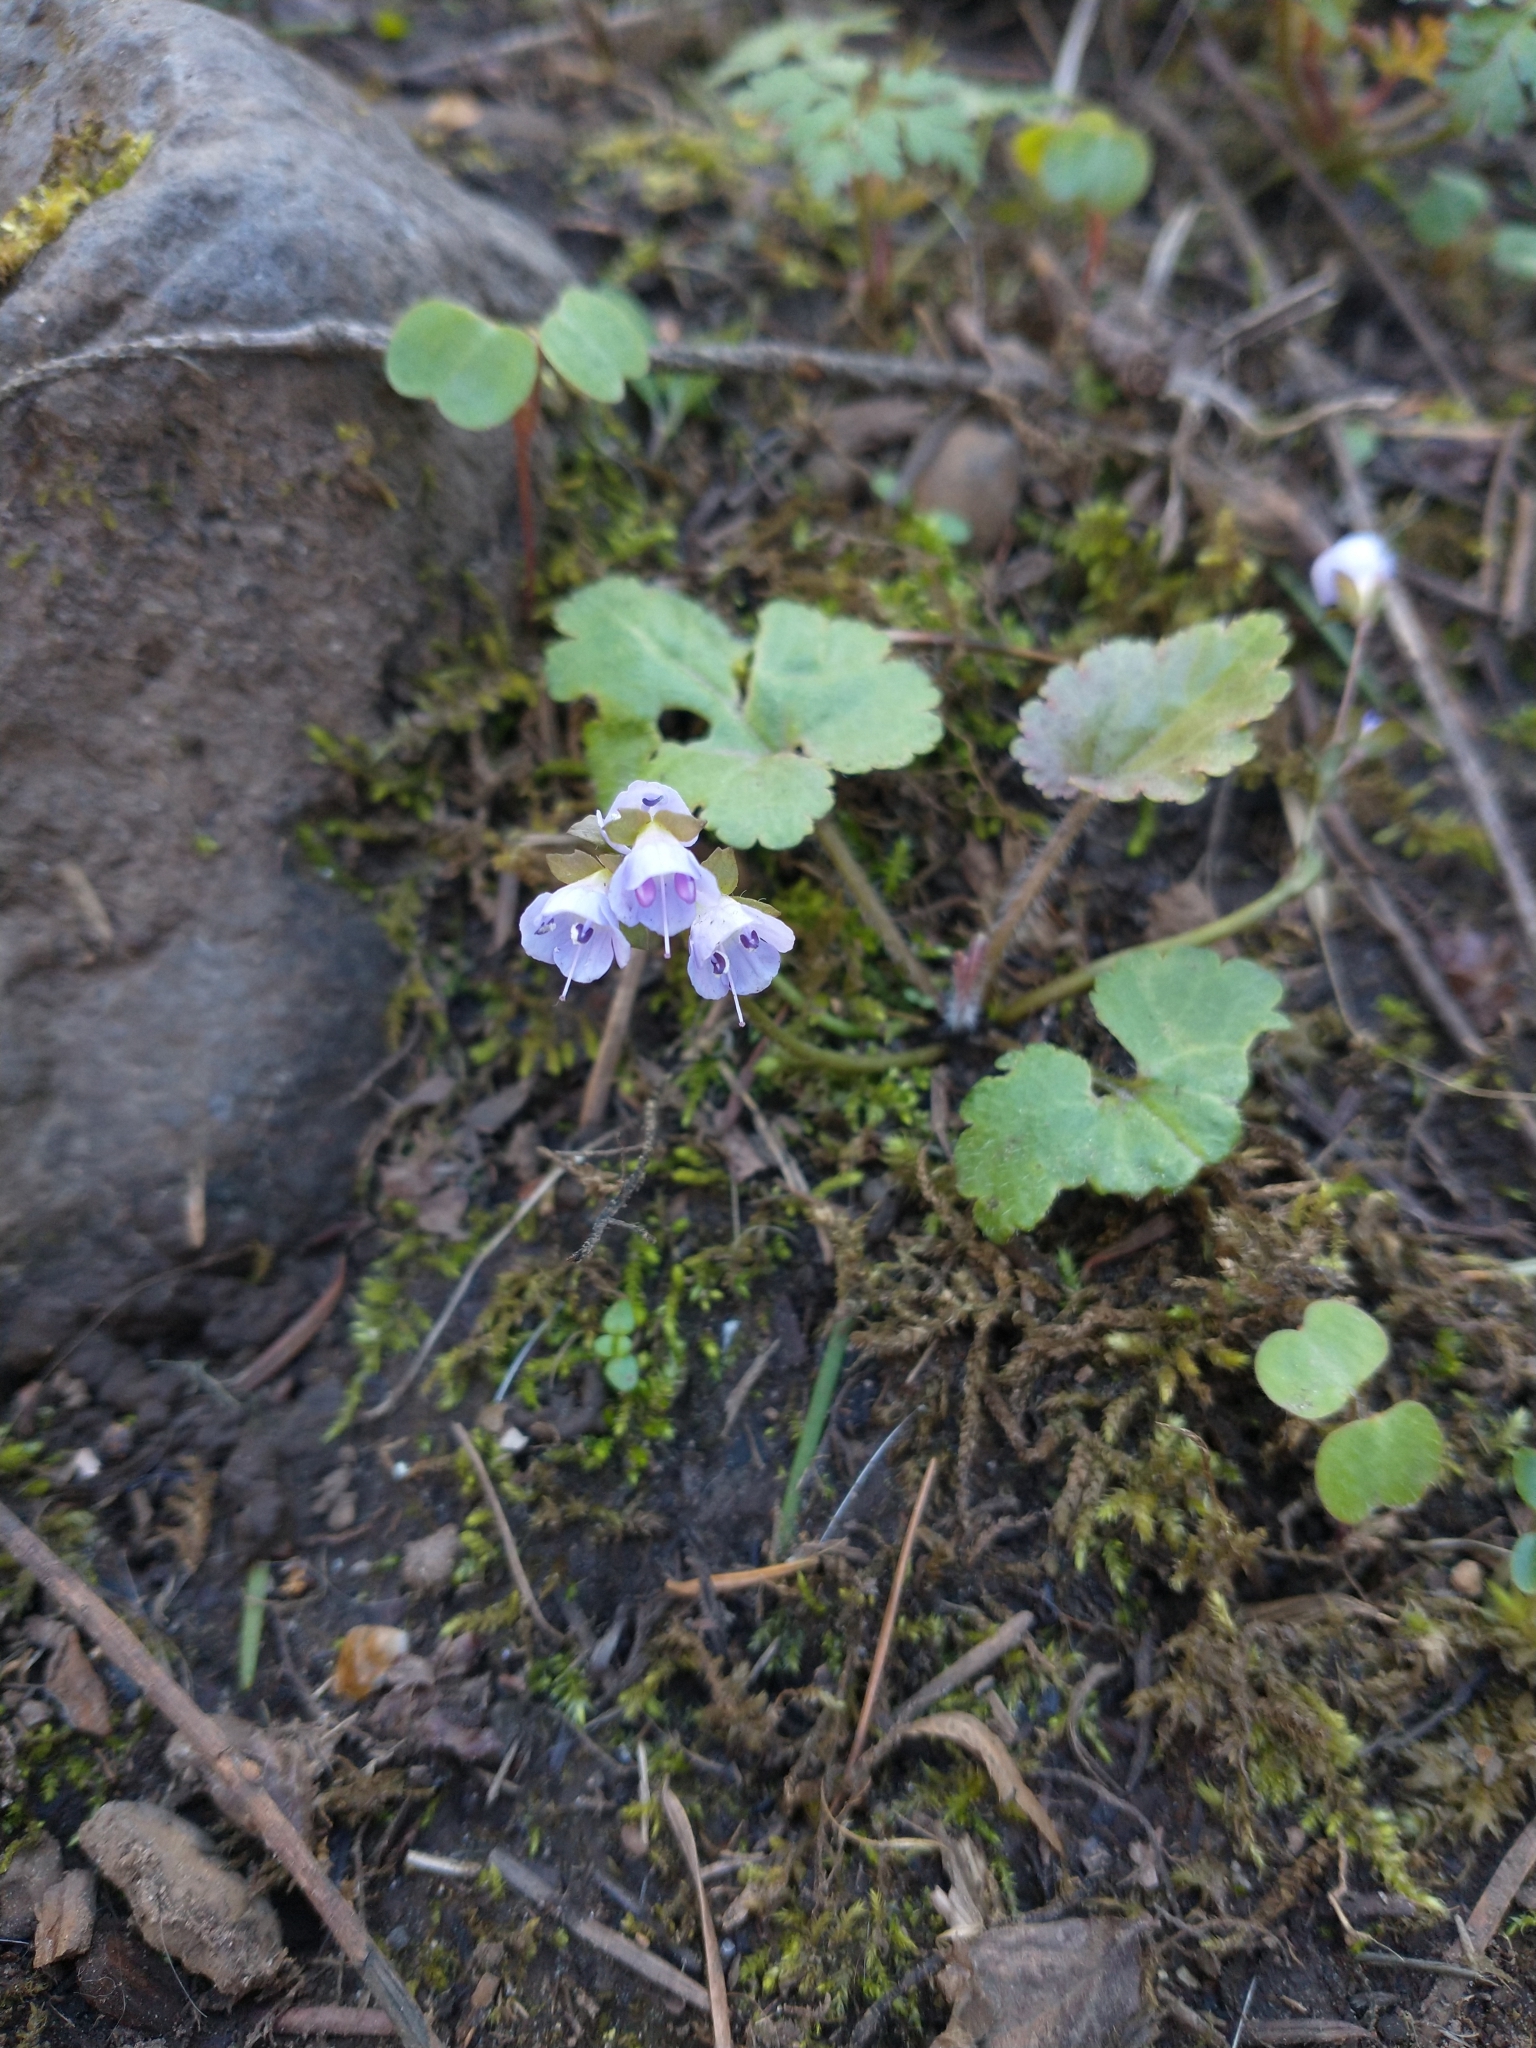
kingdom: Plantae
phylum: Tracheophyta
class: Magnoliopsida
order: Lamiales
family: Plantaginaceae
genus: Synthyris
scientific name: Synthyris reniformis
